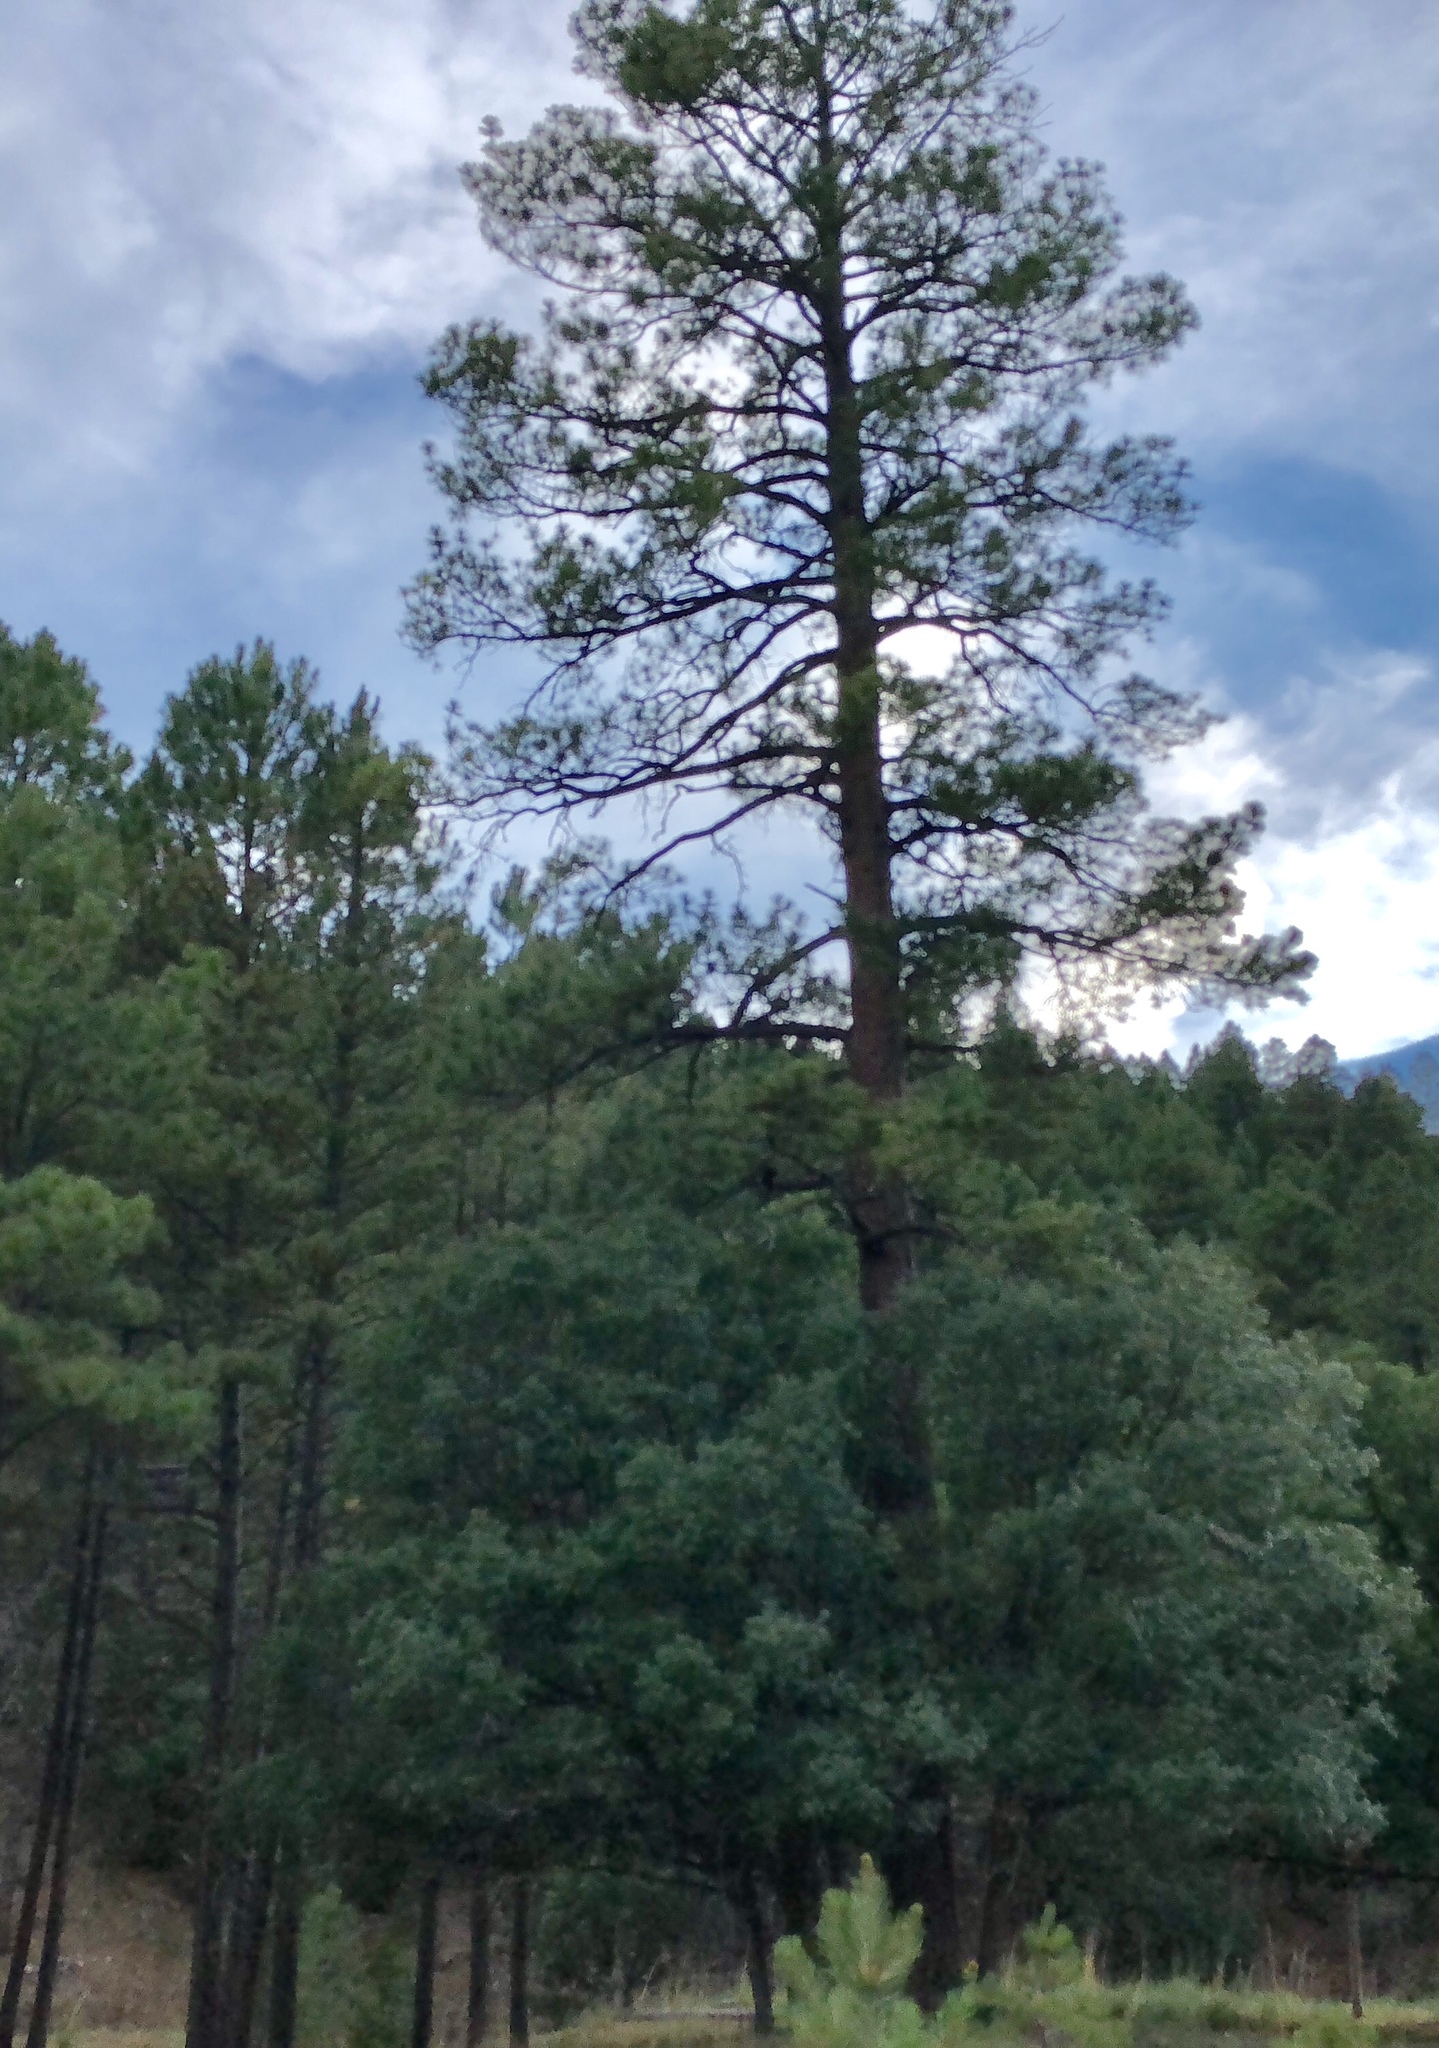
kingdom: Plantae
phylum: Tracheophyta
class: Pinopsida
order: Pinales
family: Pinaceae
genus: Pinus
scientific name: Pinus ponderosa
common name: Western yellow-pine
